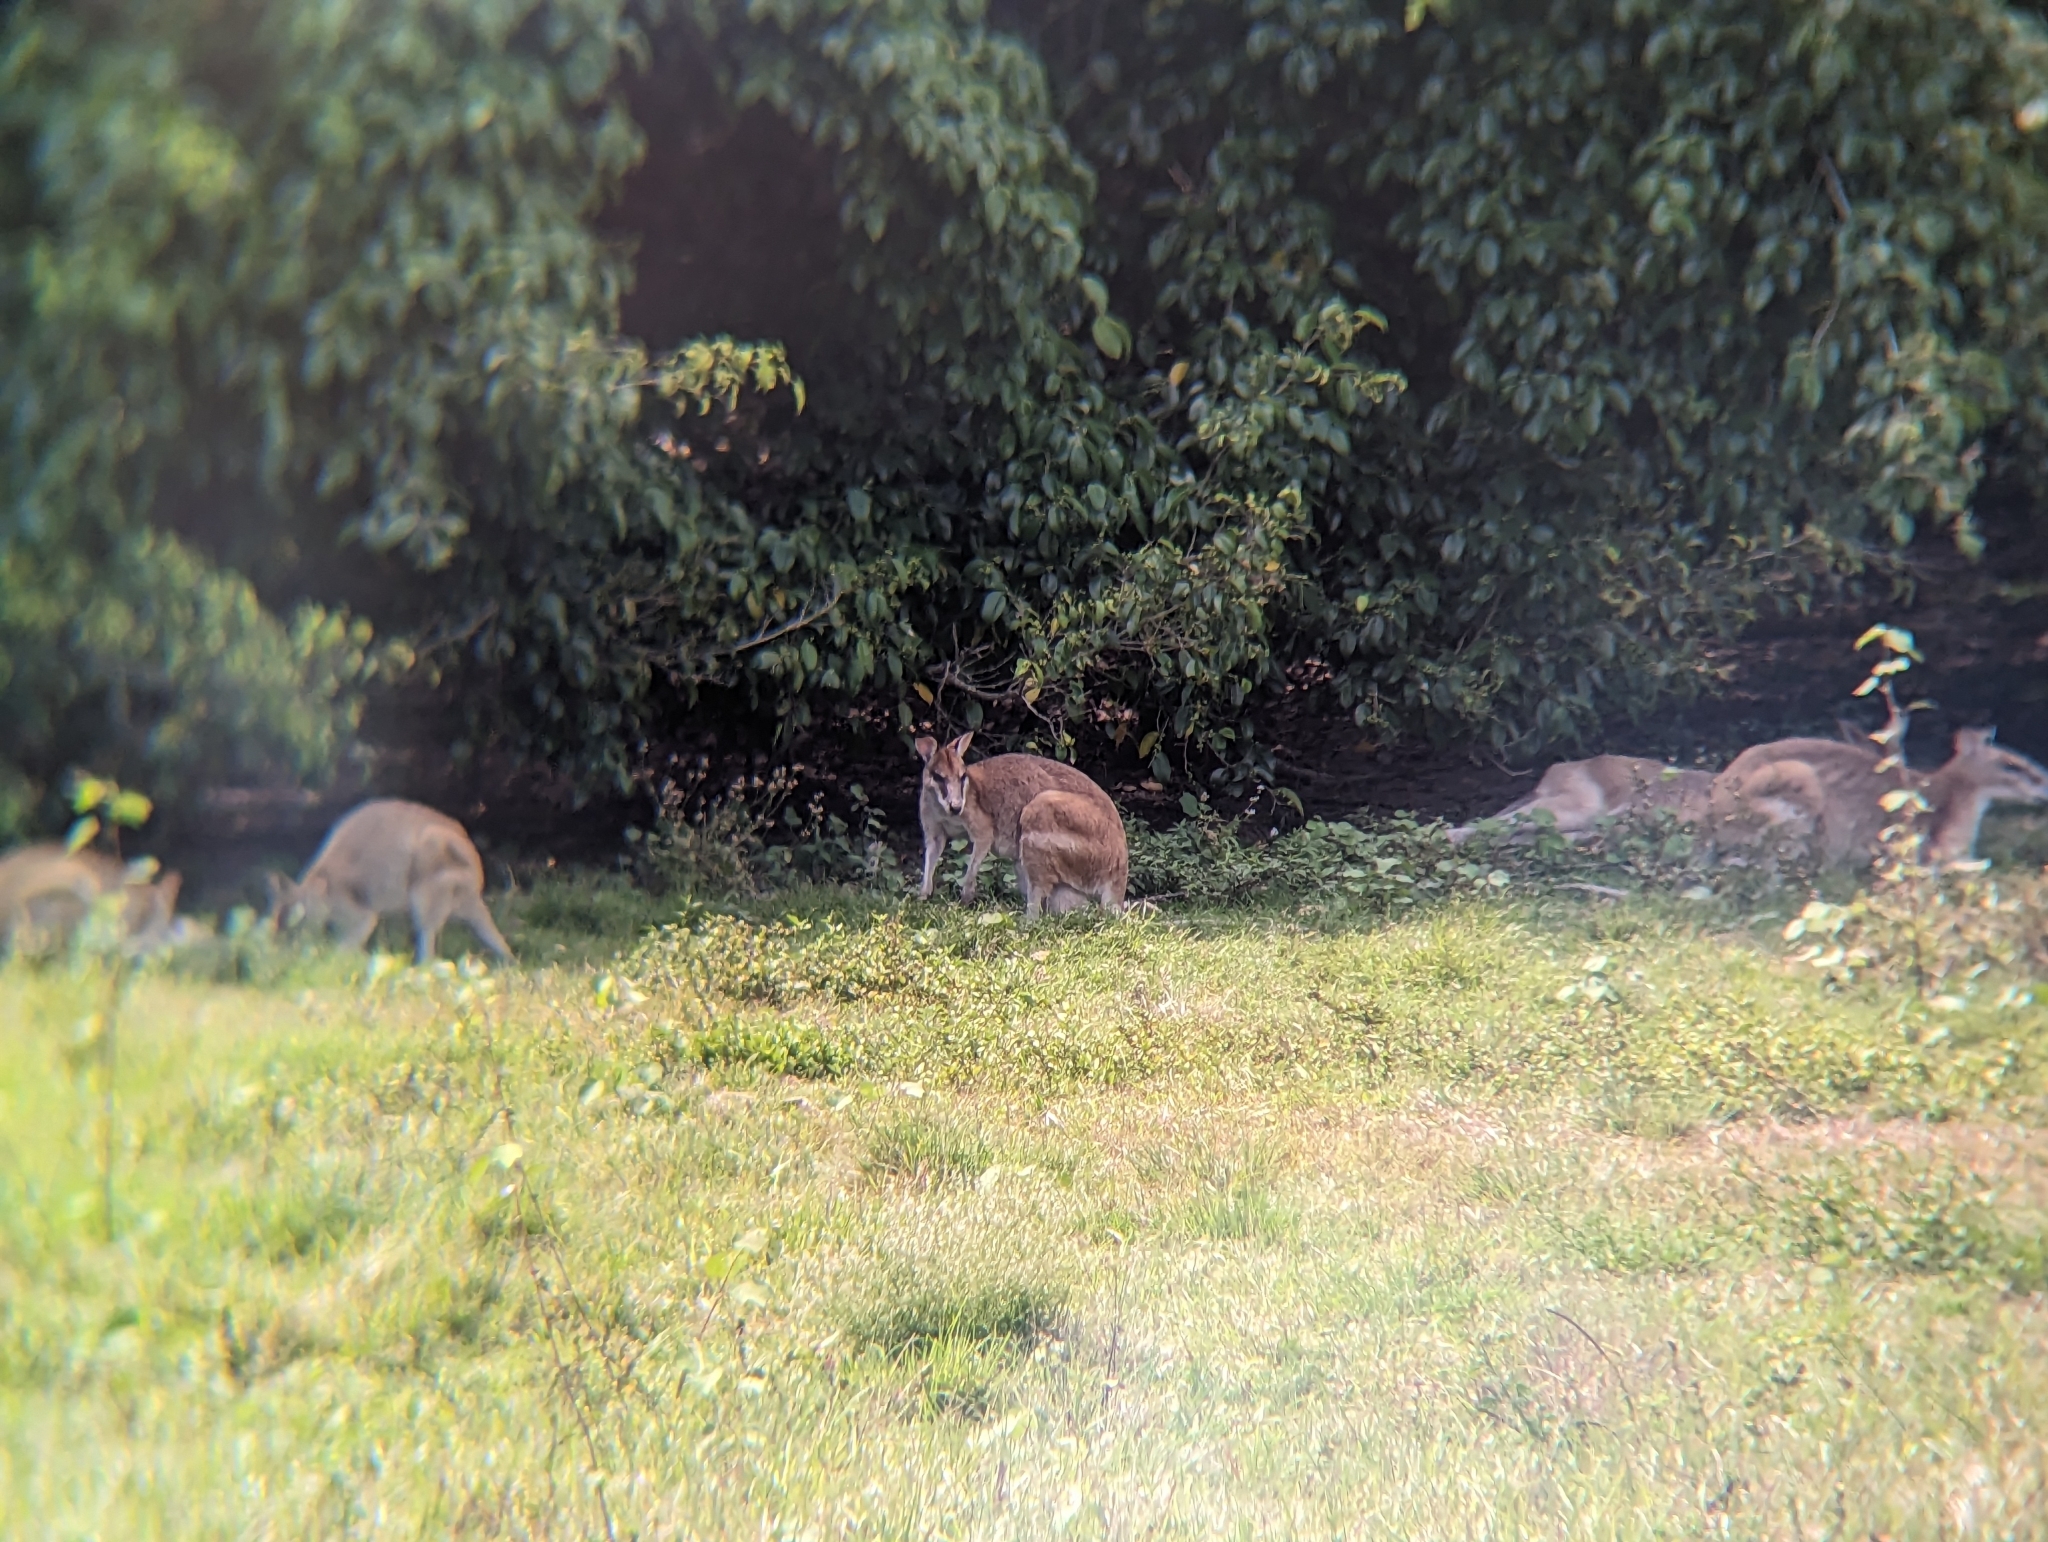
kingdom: Animalia
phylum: Chordata
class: Mammalia
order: Diprotodontia
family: Macropodidae
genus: Macropus
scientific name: Macropus agilis
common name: Agile wallaby
